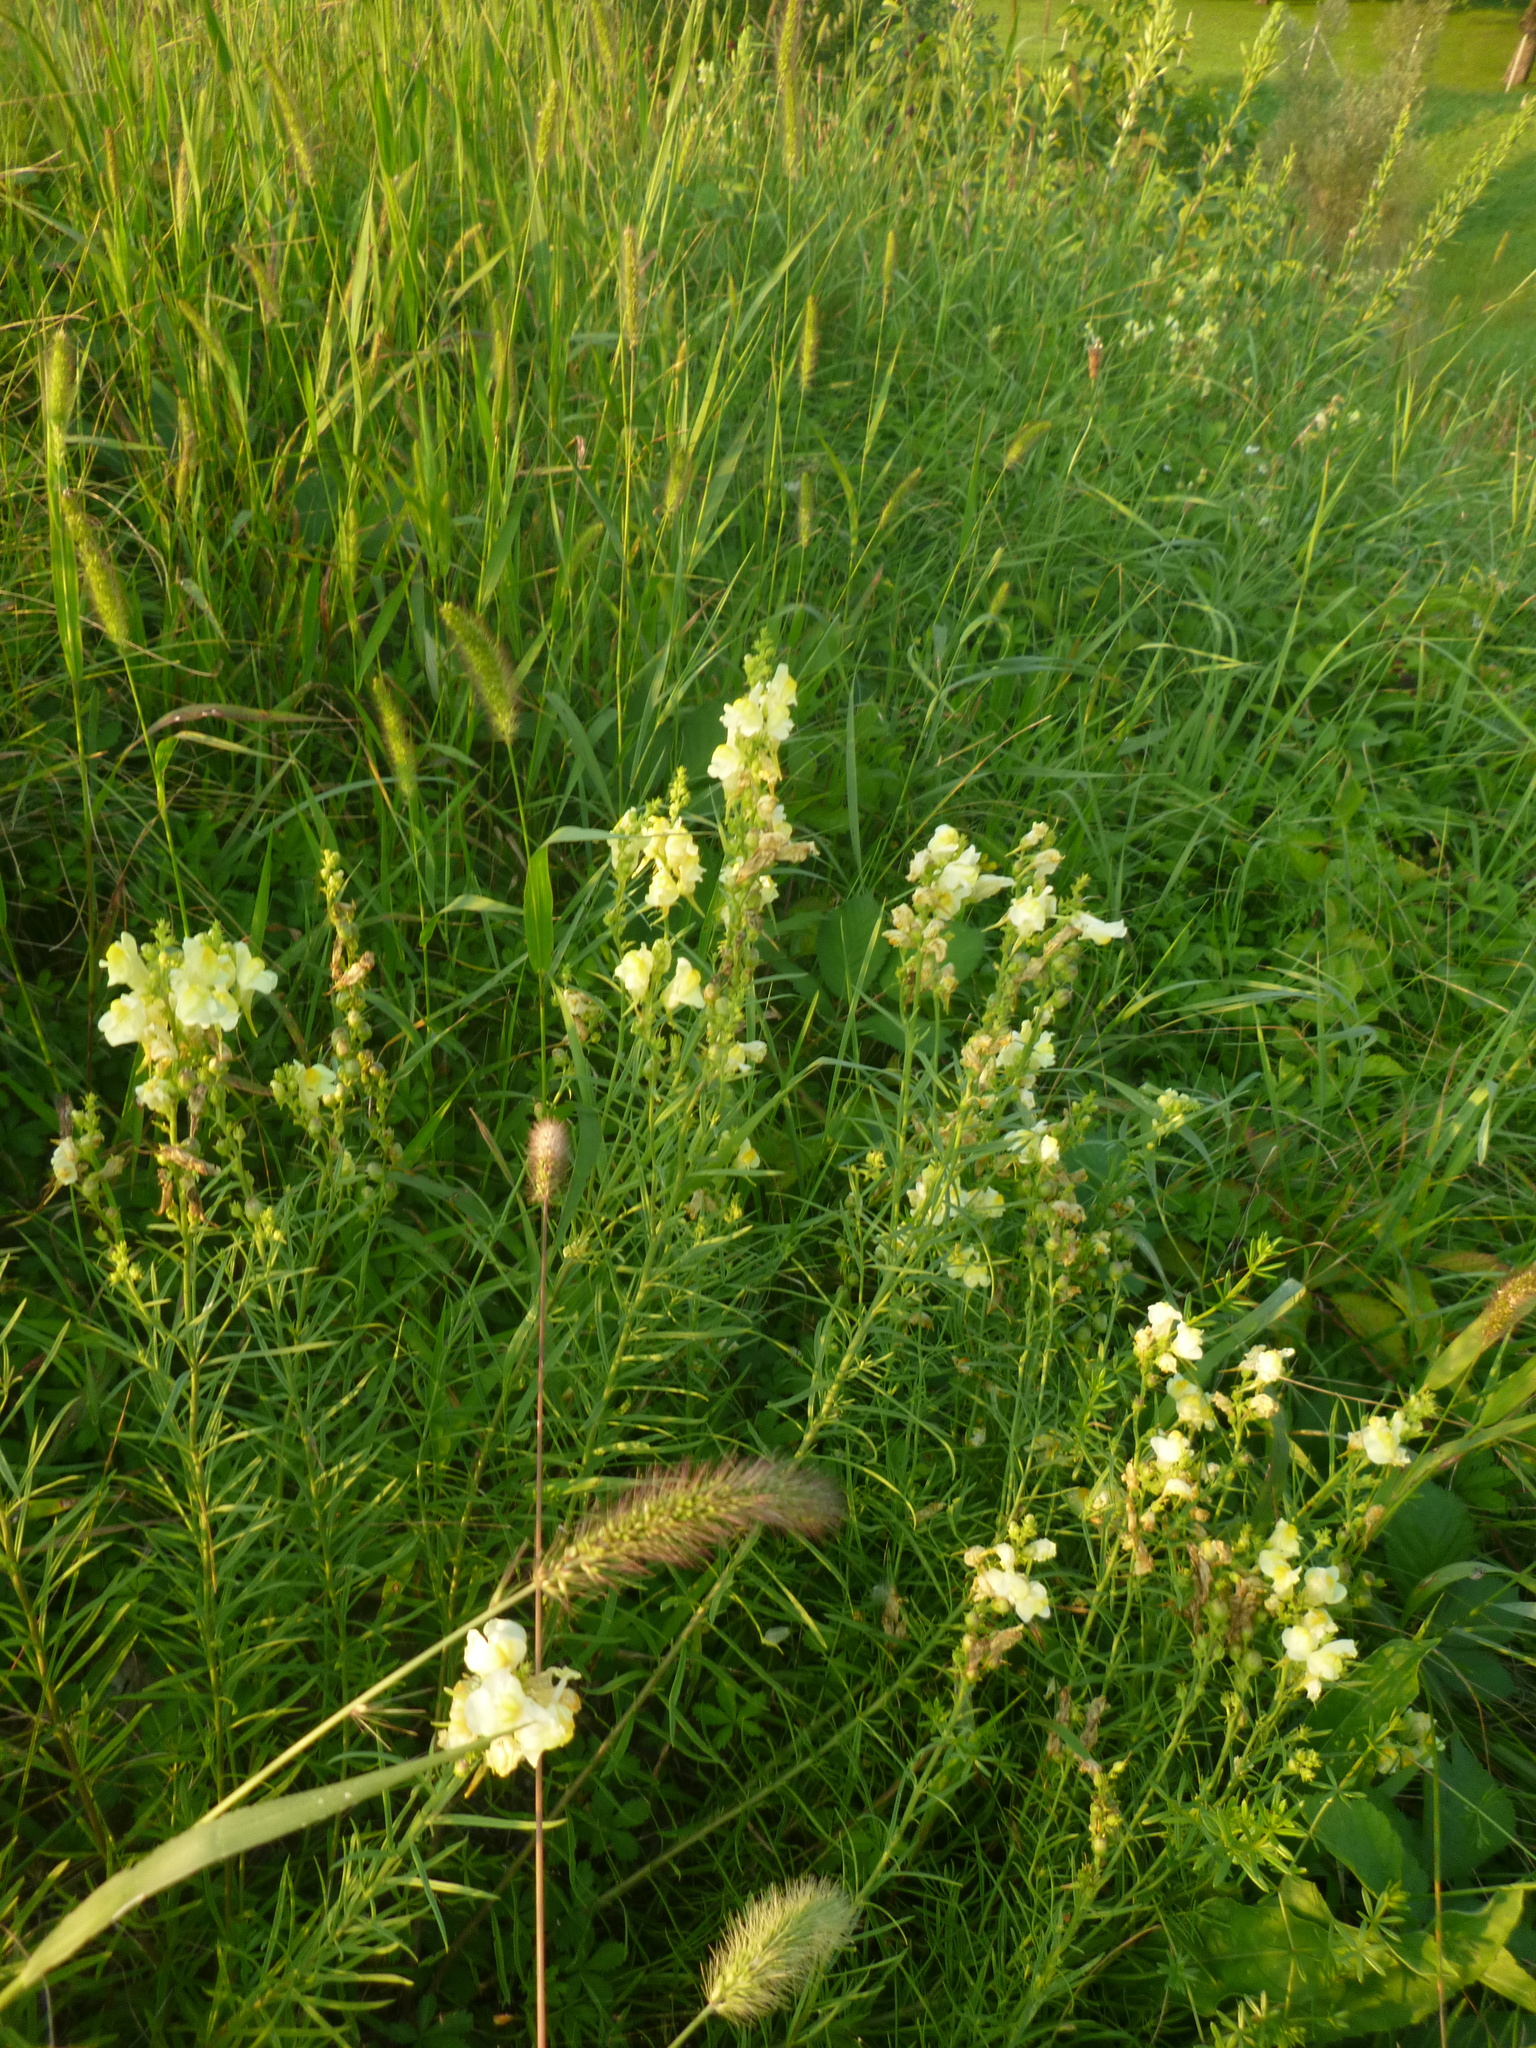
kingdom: Plantae
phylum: Tracheophyta
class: Magnoliopsida
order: Lamiales
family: Plantaginaceae
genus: Linaria
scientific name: Linaria vulgaris
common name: Butter and eggs
